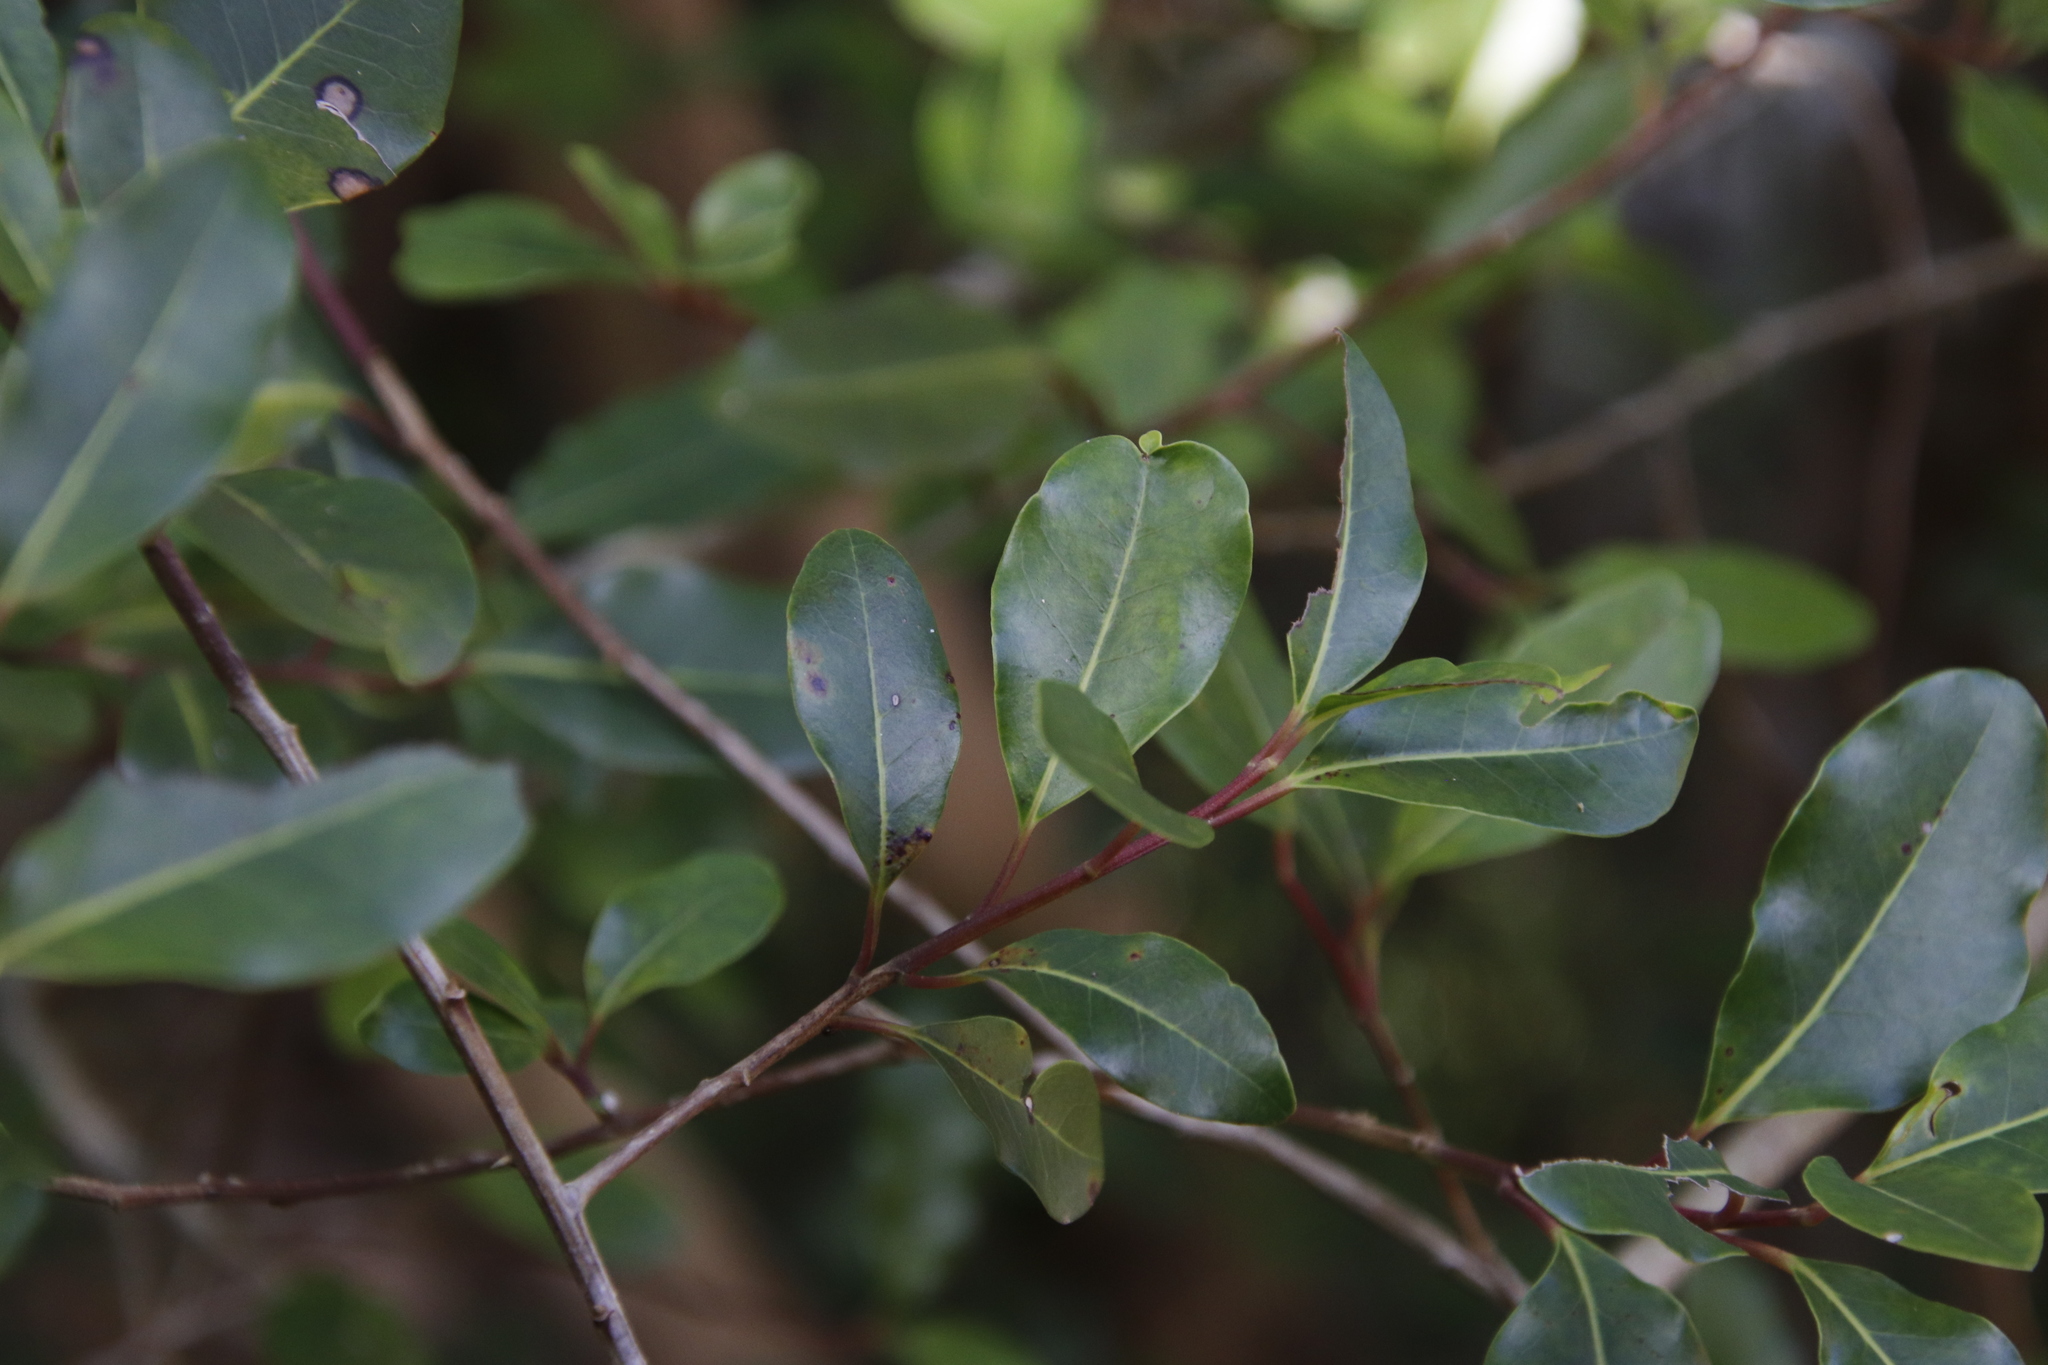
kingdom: Plantae
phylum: Tracheophyta
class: Magnoliopsida
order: Aquifoliales
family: Aquifoliaceae
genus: Ilex
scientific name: Ilex mitis
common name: African holly
